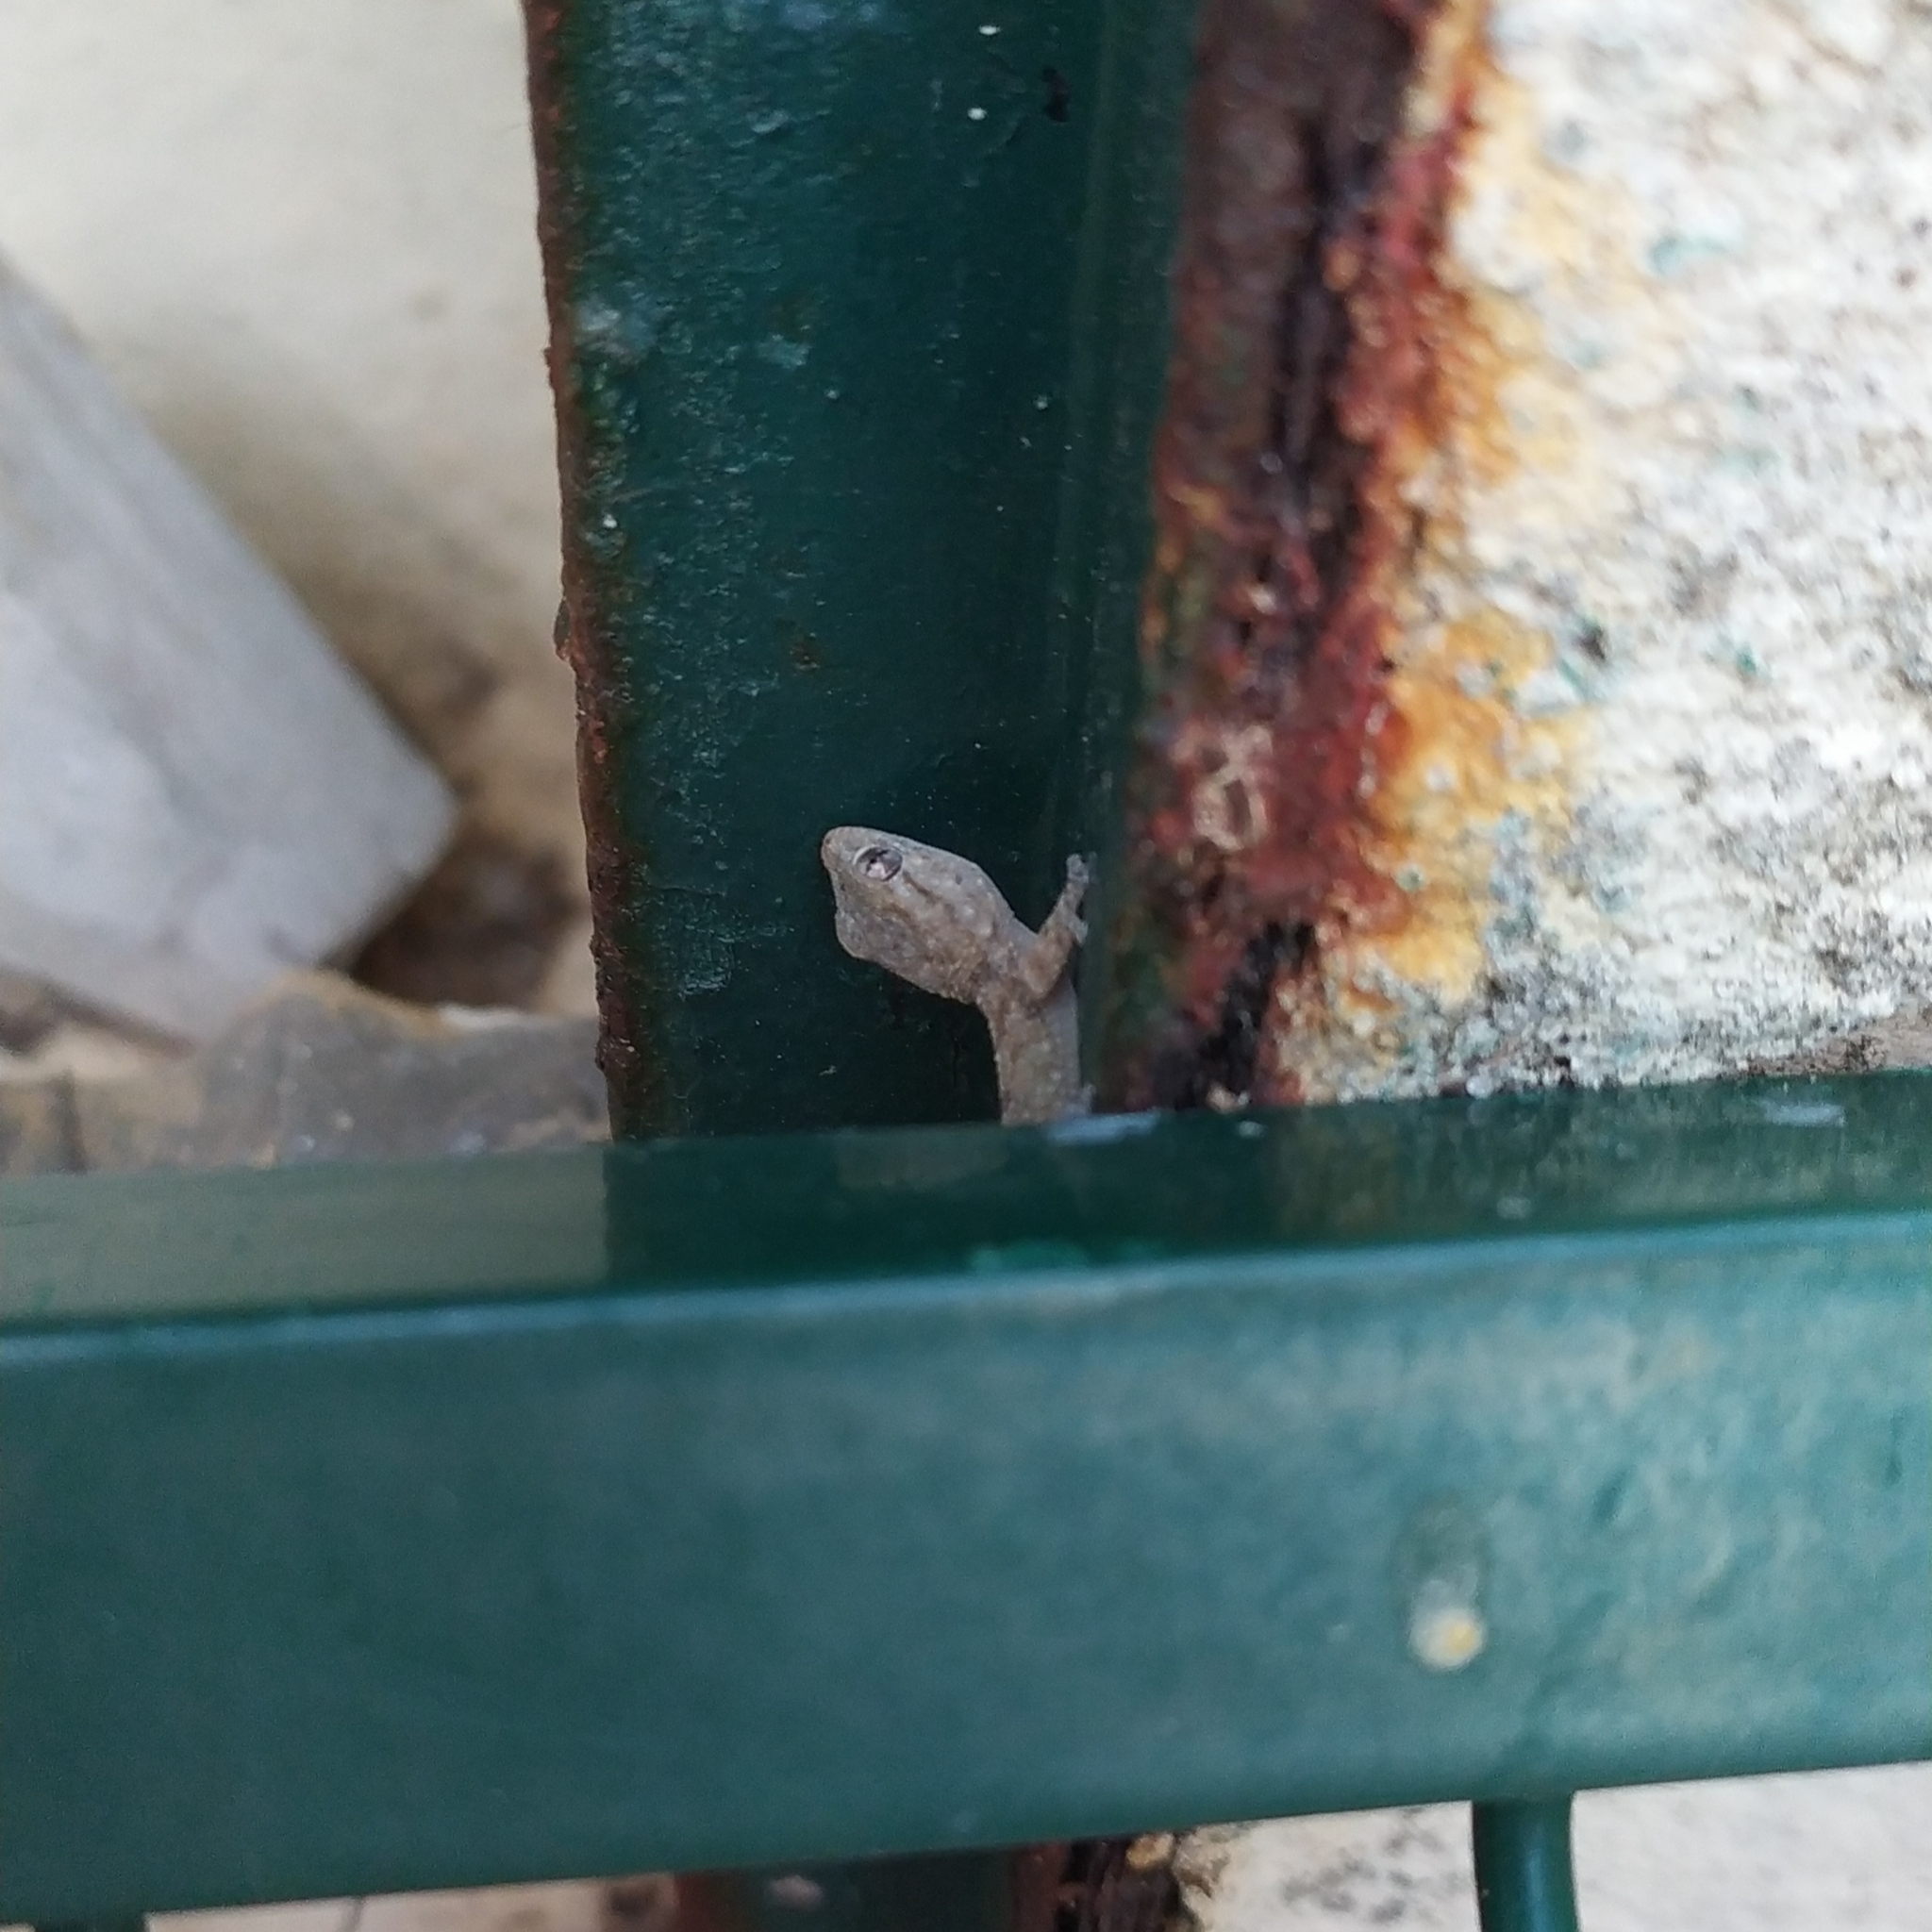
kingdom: Animalia
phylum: Chordata
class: Squamata
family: Phyllodactylidae
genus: Tarentola
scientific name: Tarentola mauritanica
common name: Moorish gecko
